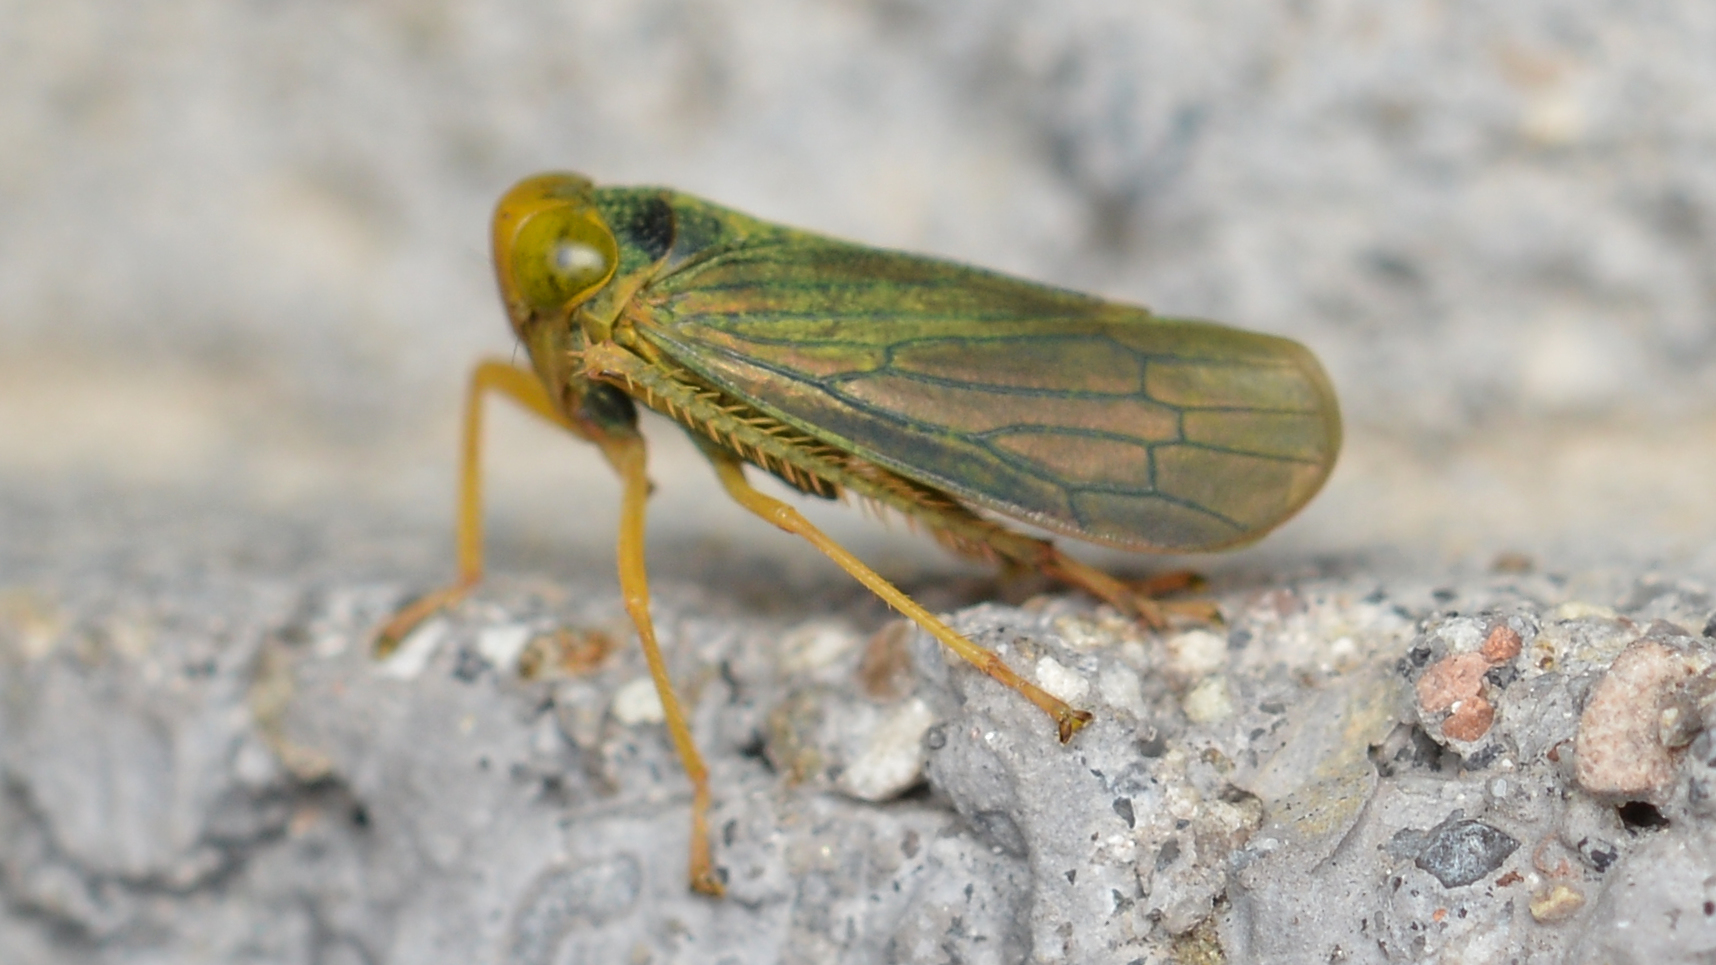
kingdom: Animalia
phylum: Arthropoda
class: Insecta
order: Hemiptera
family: Cicadellidae
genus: Jikradia
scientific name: Jikradia olitoria
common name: Coppery leafhopper
